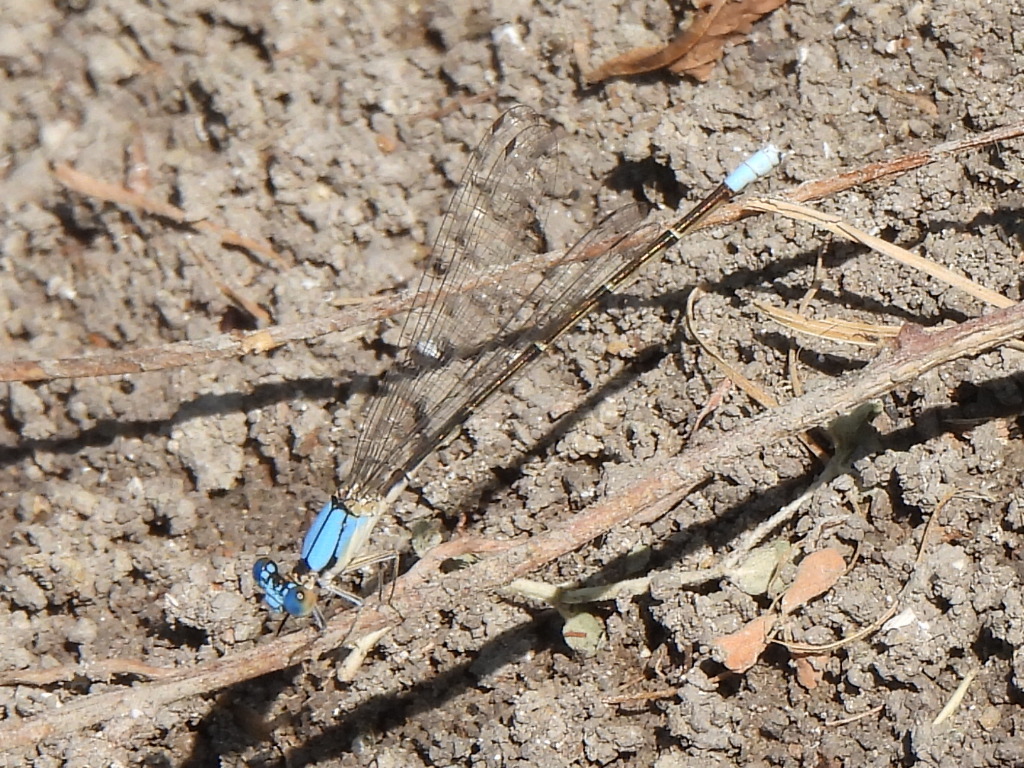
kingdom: Animalia
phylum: Arthropoda
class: Insecta
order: Odonata
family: Coenagrionidae
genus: Argia
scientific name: Argia apicalis
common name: Blue-fronted dancer
